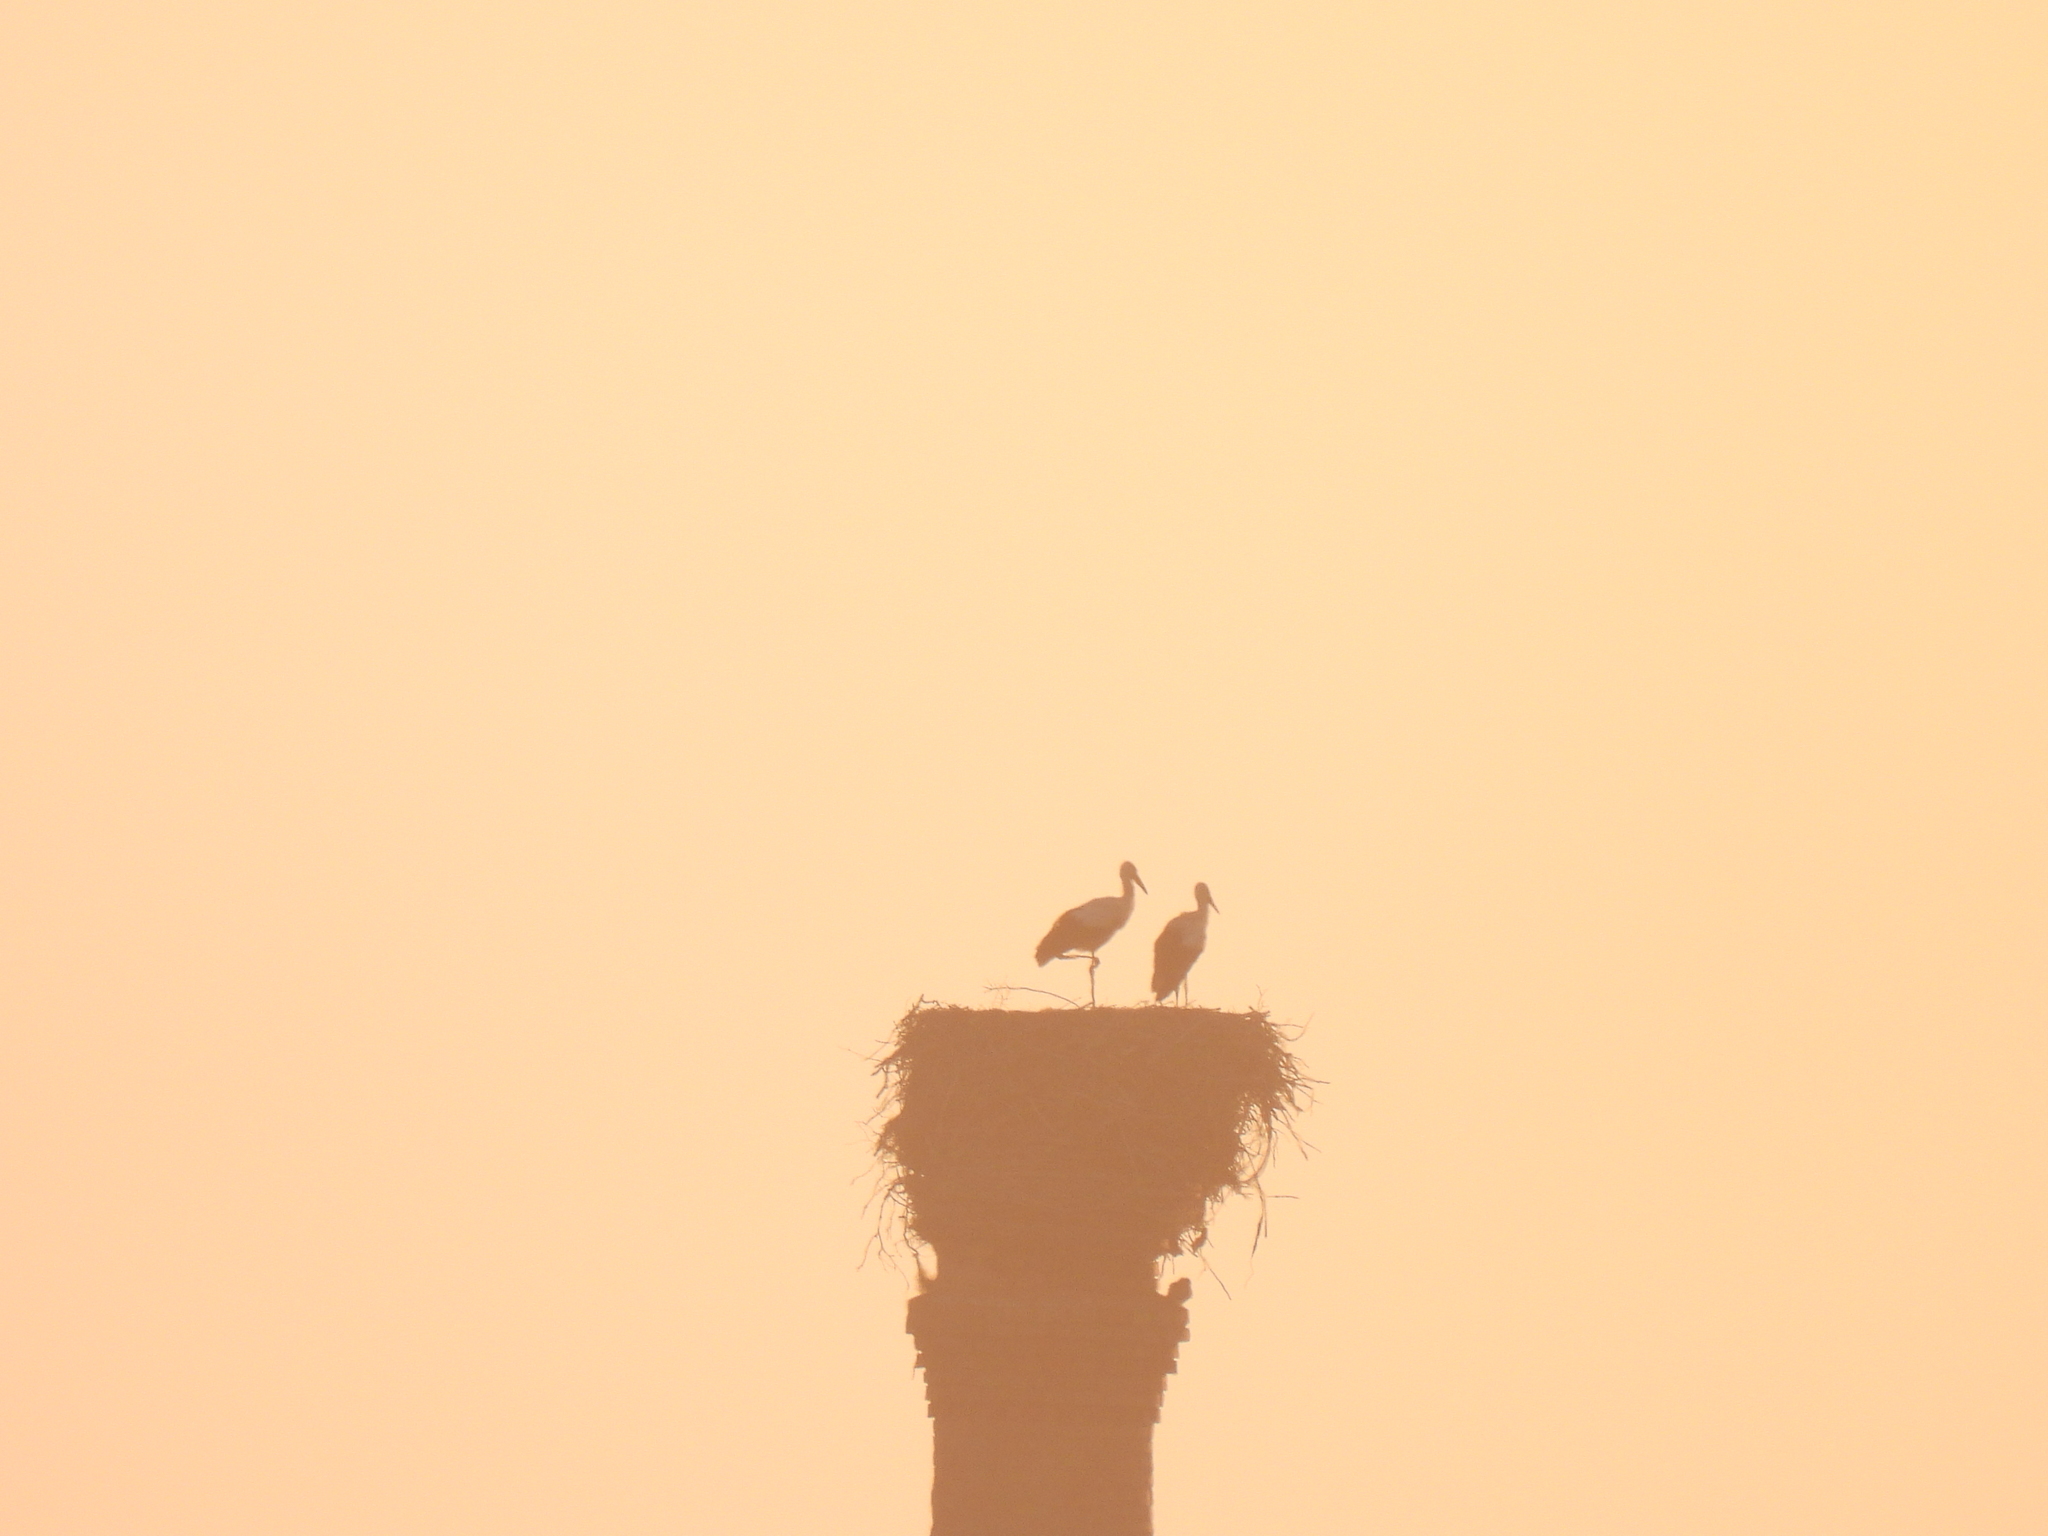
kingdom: Animalia
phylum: Chordata
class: Aves
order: Ciconiiformes
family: Ciconiidae
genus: Ciconia
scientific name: Ciconia ciconia
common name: White stork
